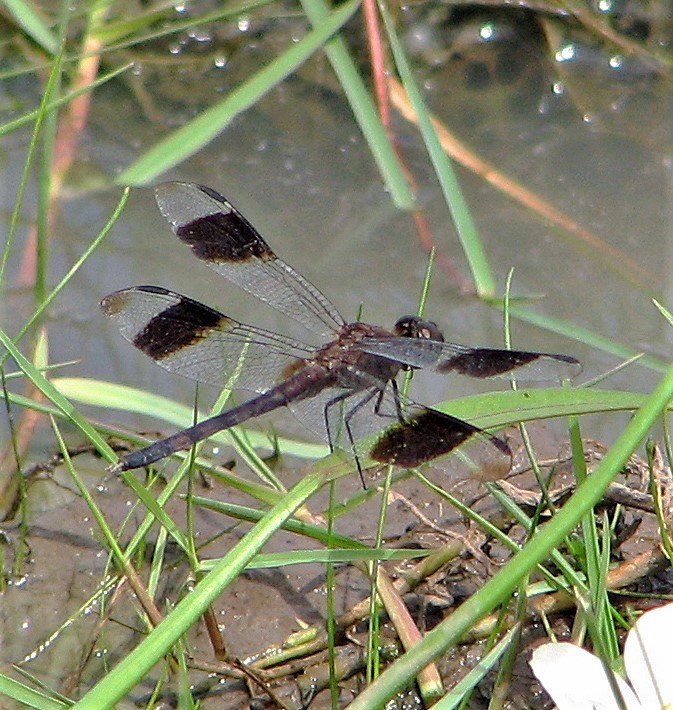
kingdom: Animalia
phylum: Arthropoda
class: Insecta
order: Odonata
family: Libellulidae
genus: Erythrodiplax
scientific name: Erythrodiplax umbrata
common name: Band-winged dragonlet
